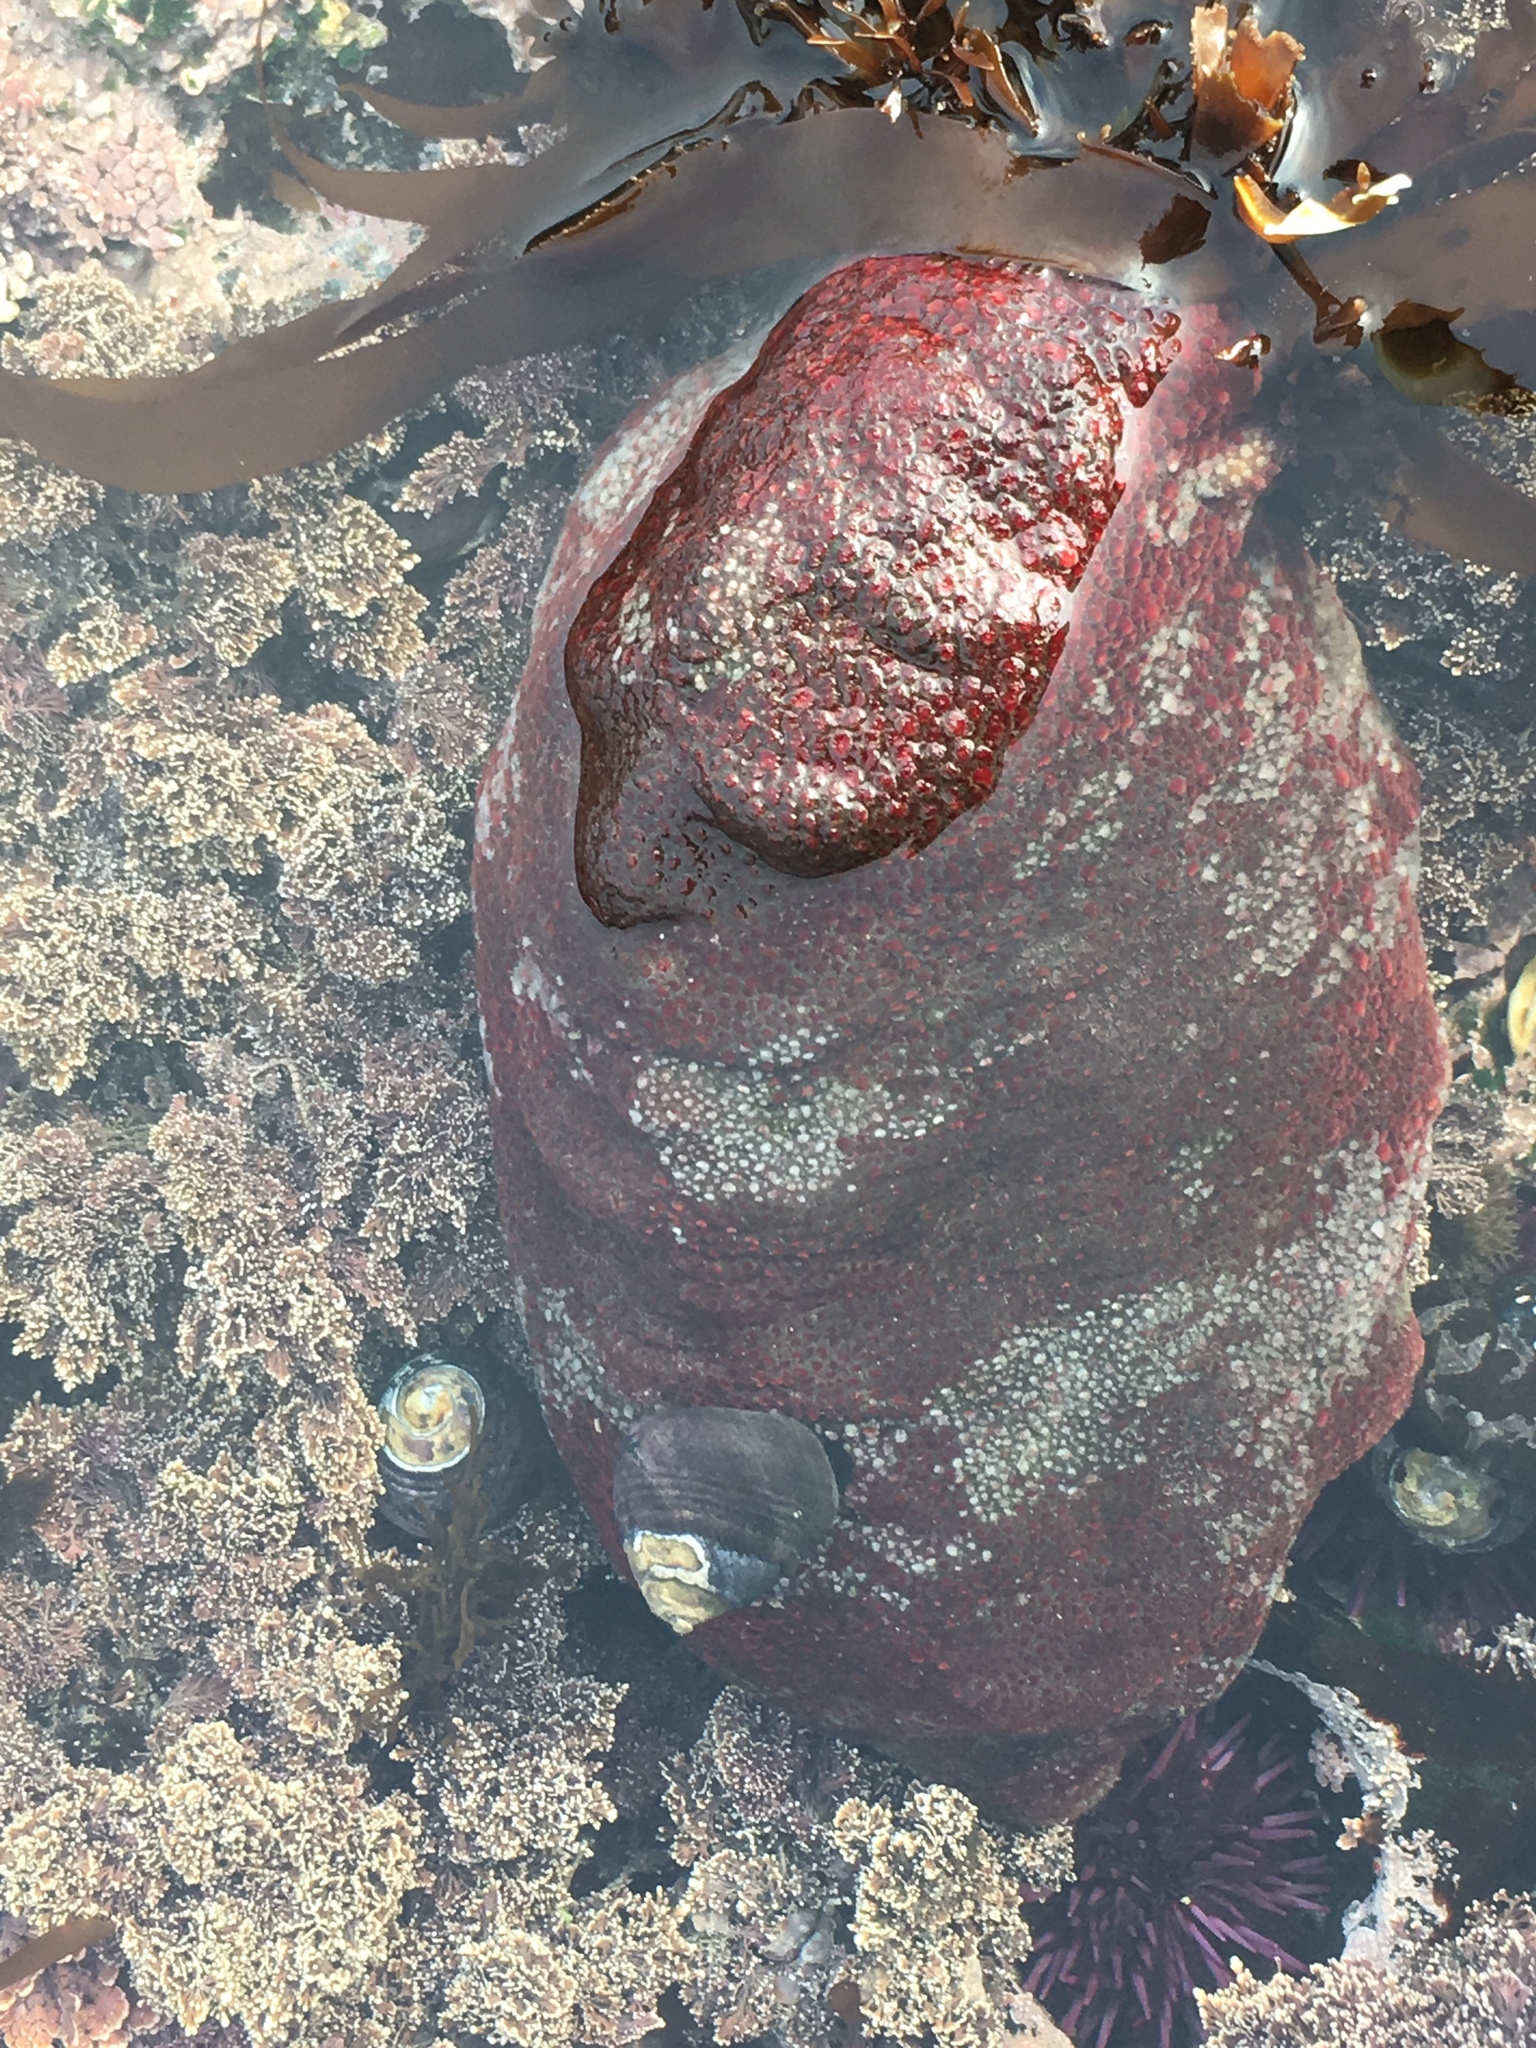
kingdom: Animalia
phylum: Mollusca
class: Polyplacophora
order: Chitonida
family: Acanthochitonidae
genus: Cryptochiton
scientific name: Cryptochiton stelleri
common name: Giant pacific chiton
